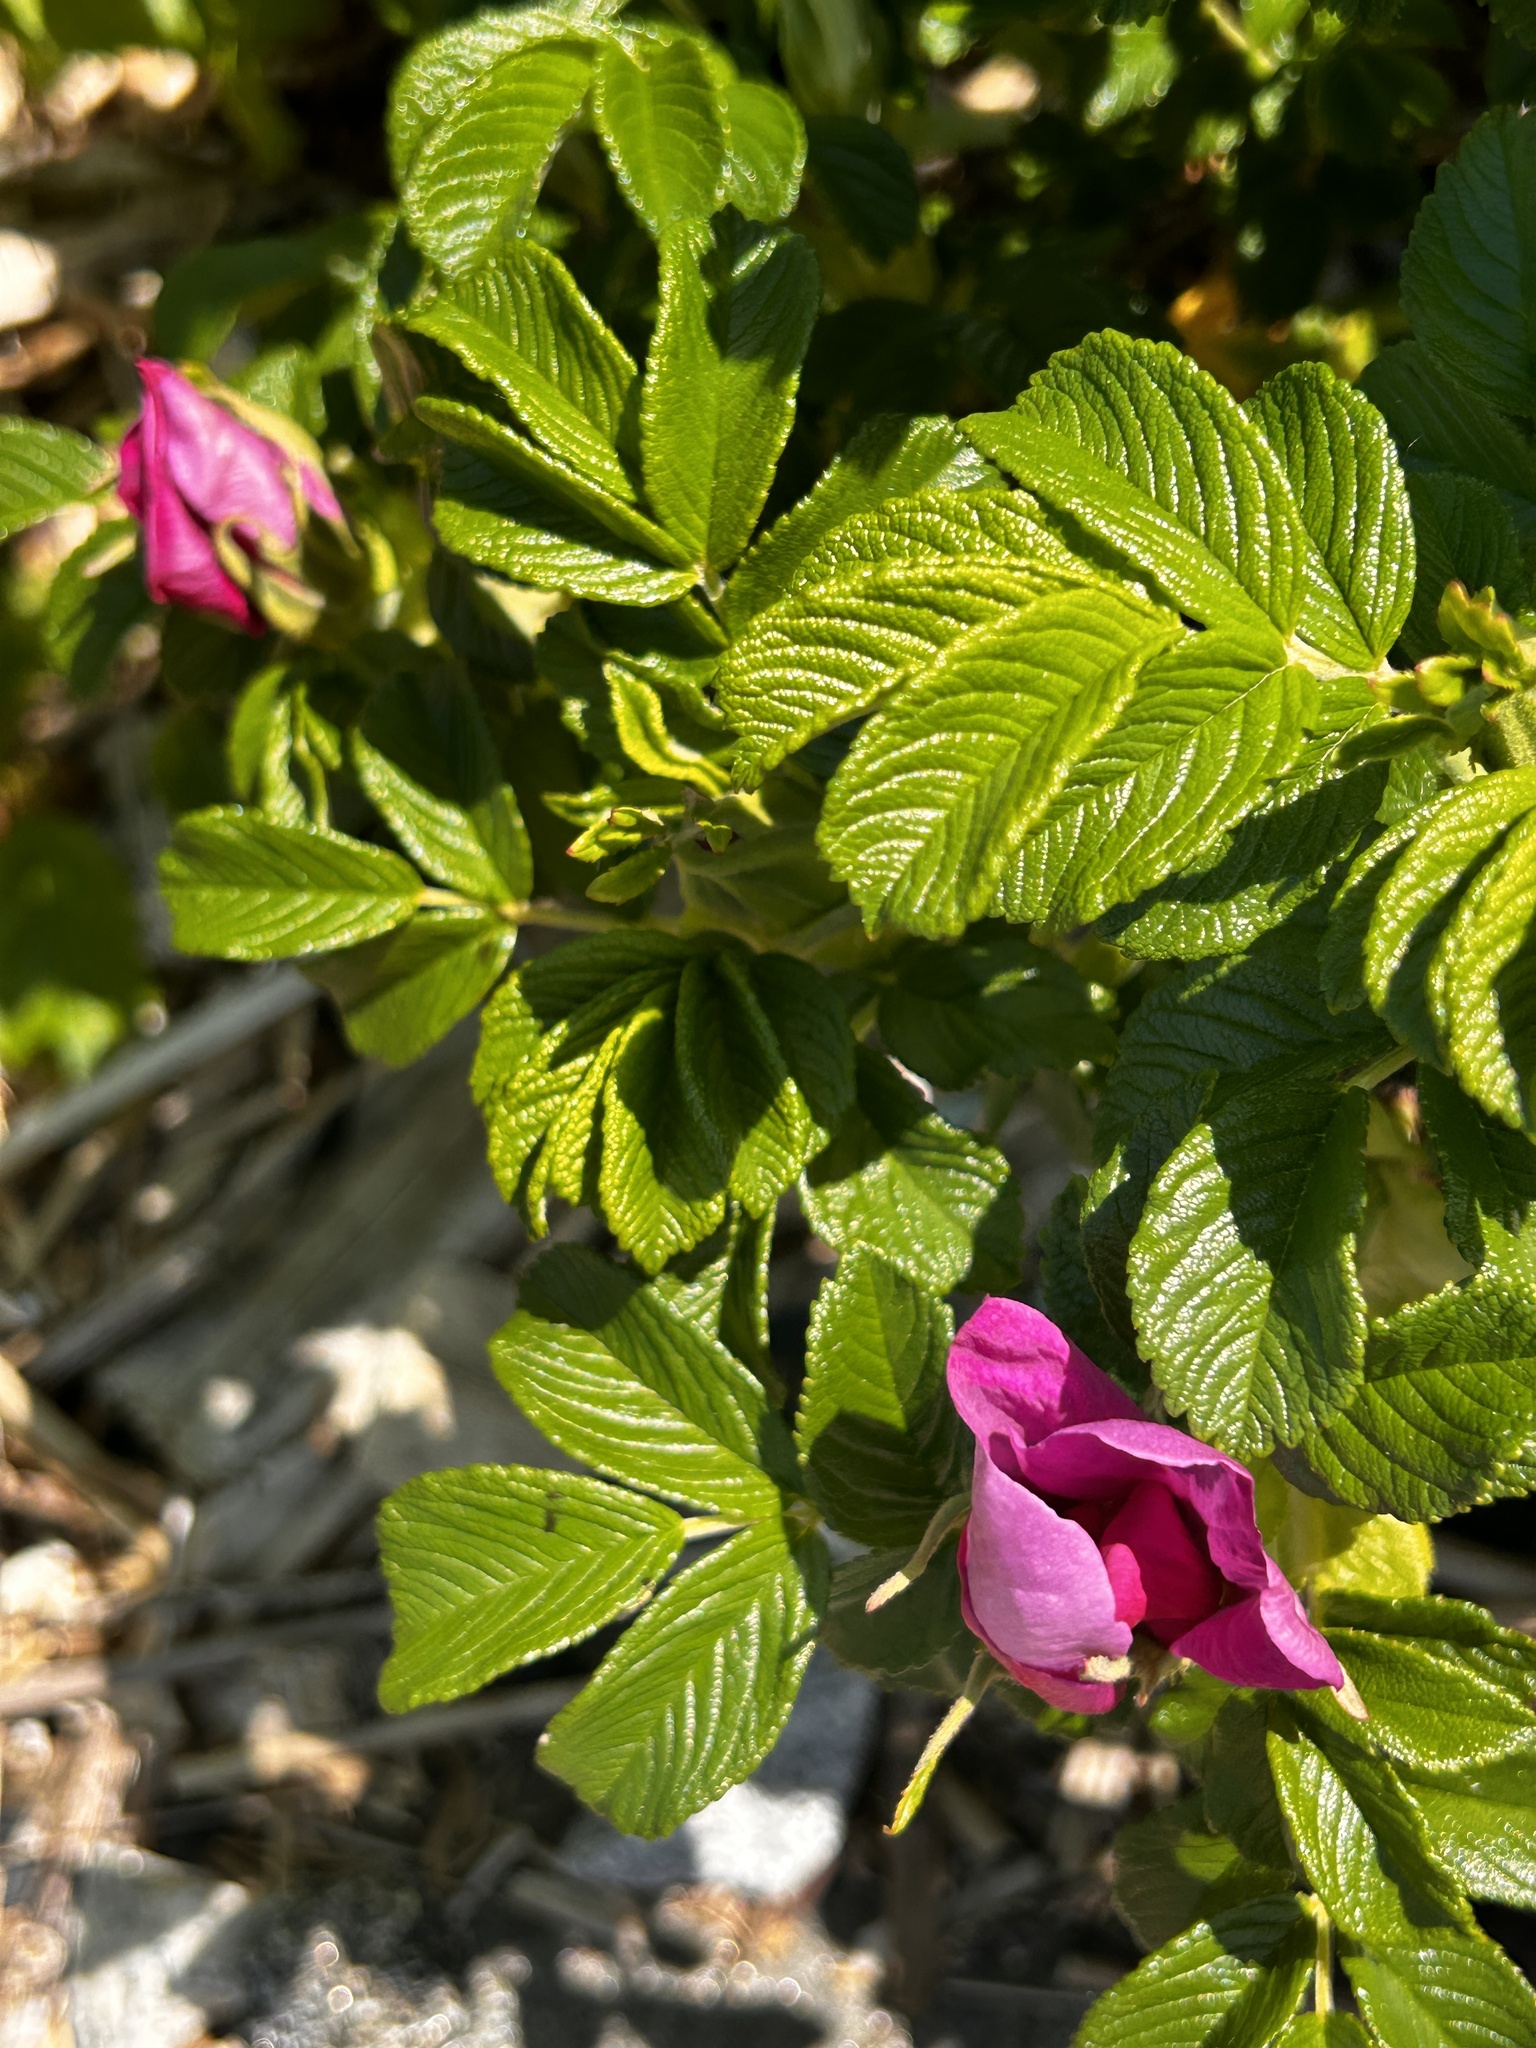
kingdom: Plantae
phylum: Tracheophyta
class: Magnoliopsida
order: Rosales
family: Rosaceae
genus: Rosa
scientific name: Rosa rugosa
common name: Japanese rose
